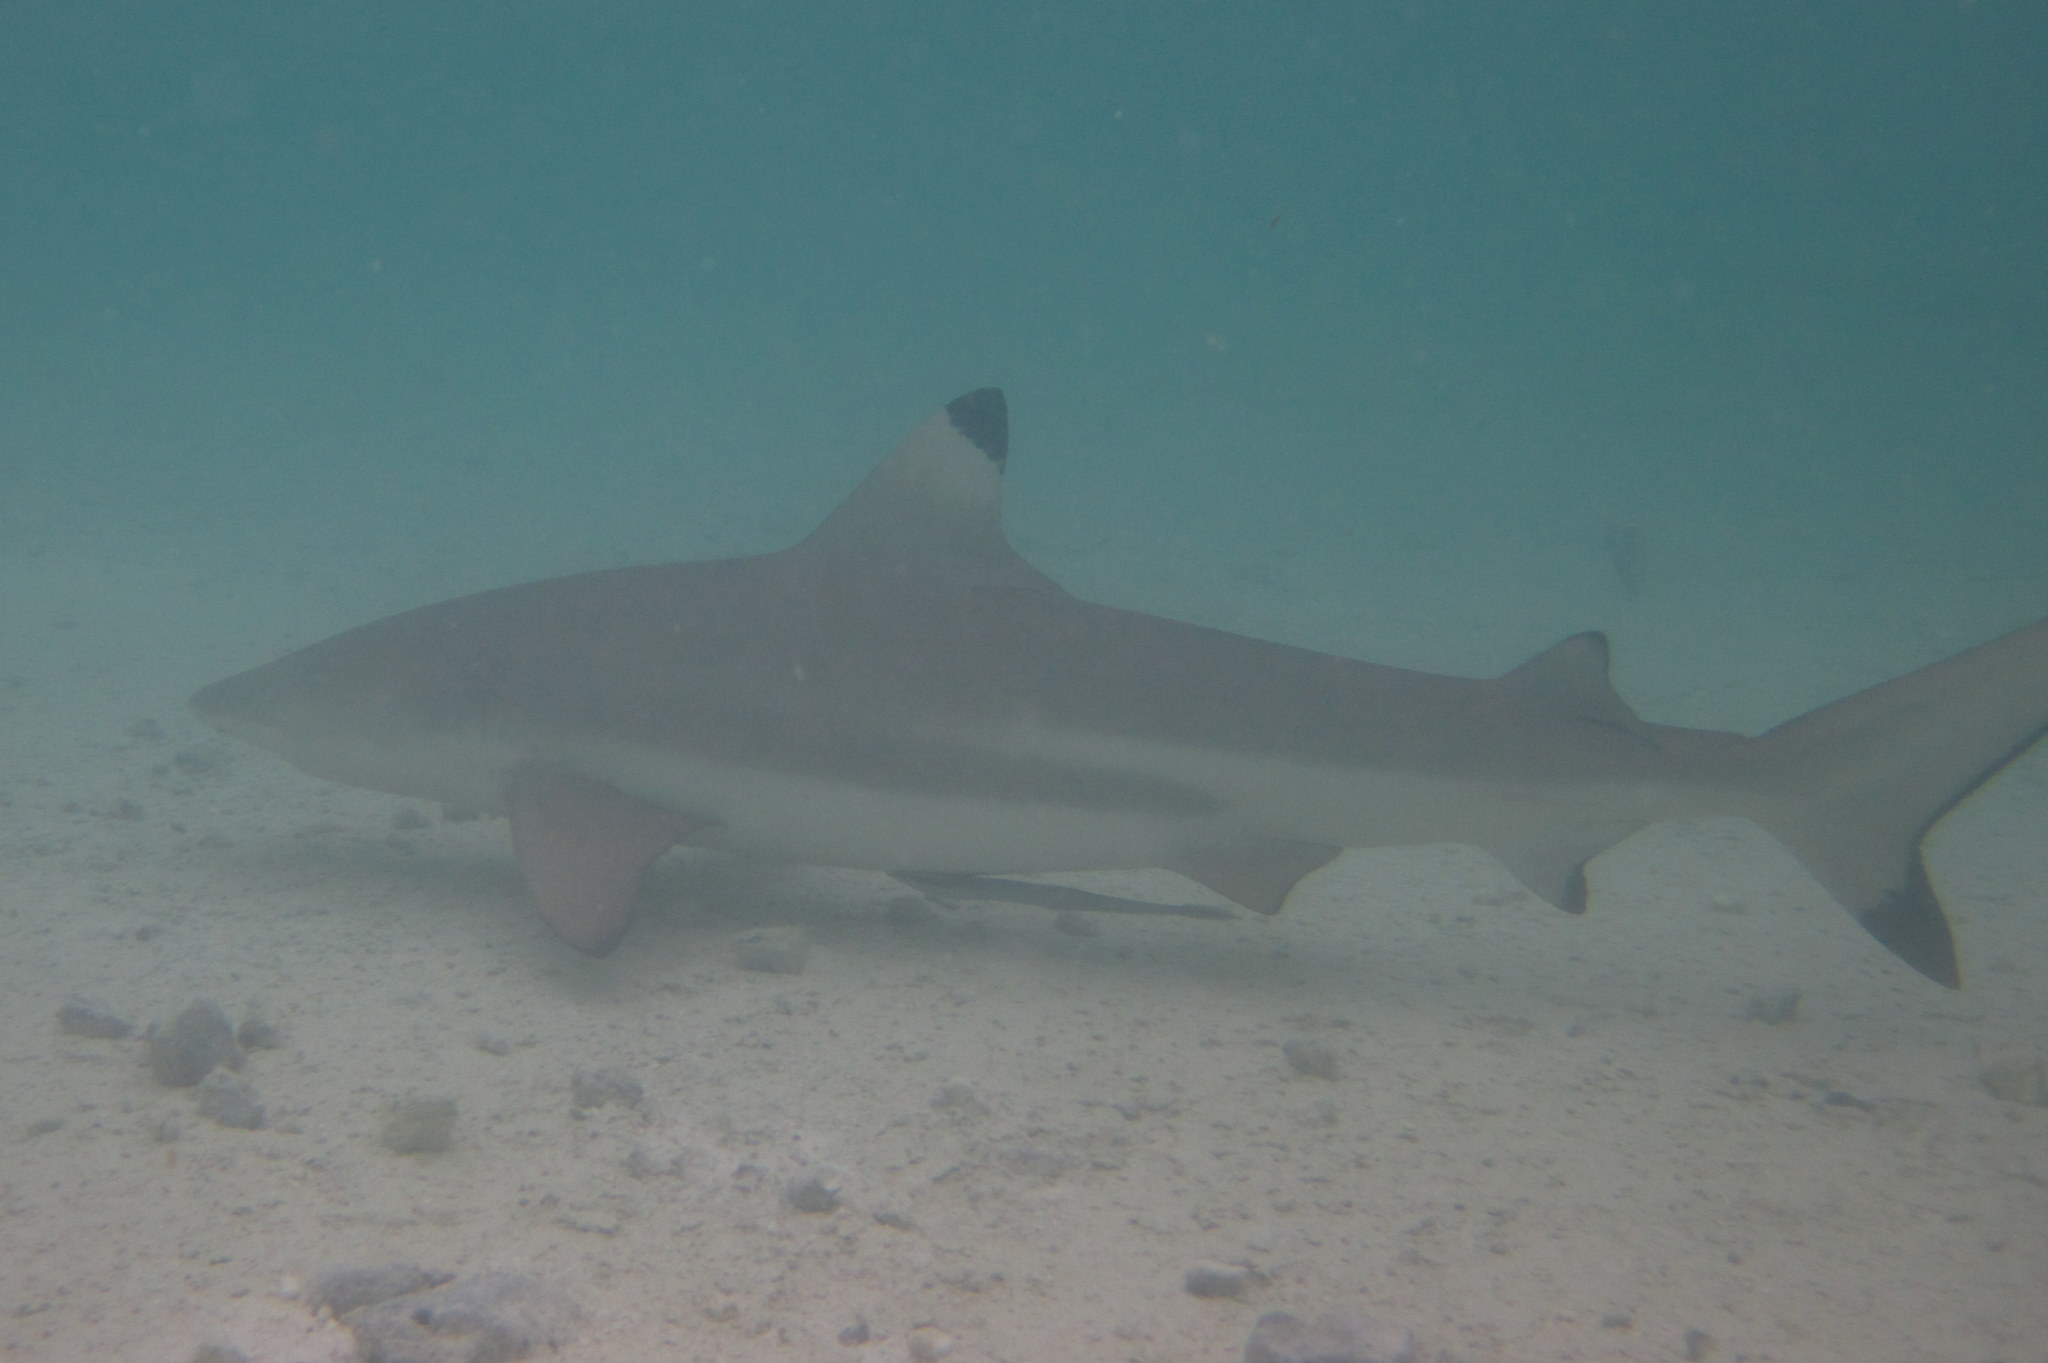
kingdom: Animalia
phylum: Chordata
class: Elasmobranchii
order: Carcharhiniformes
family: Carcharhinidae
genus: Carcharhinus
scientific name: Carcharhinus melanopterus
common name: Blacktip reef shark
